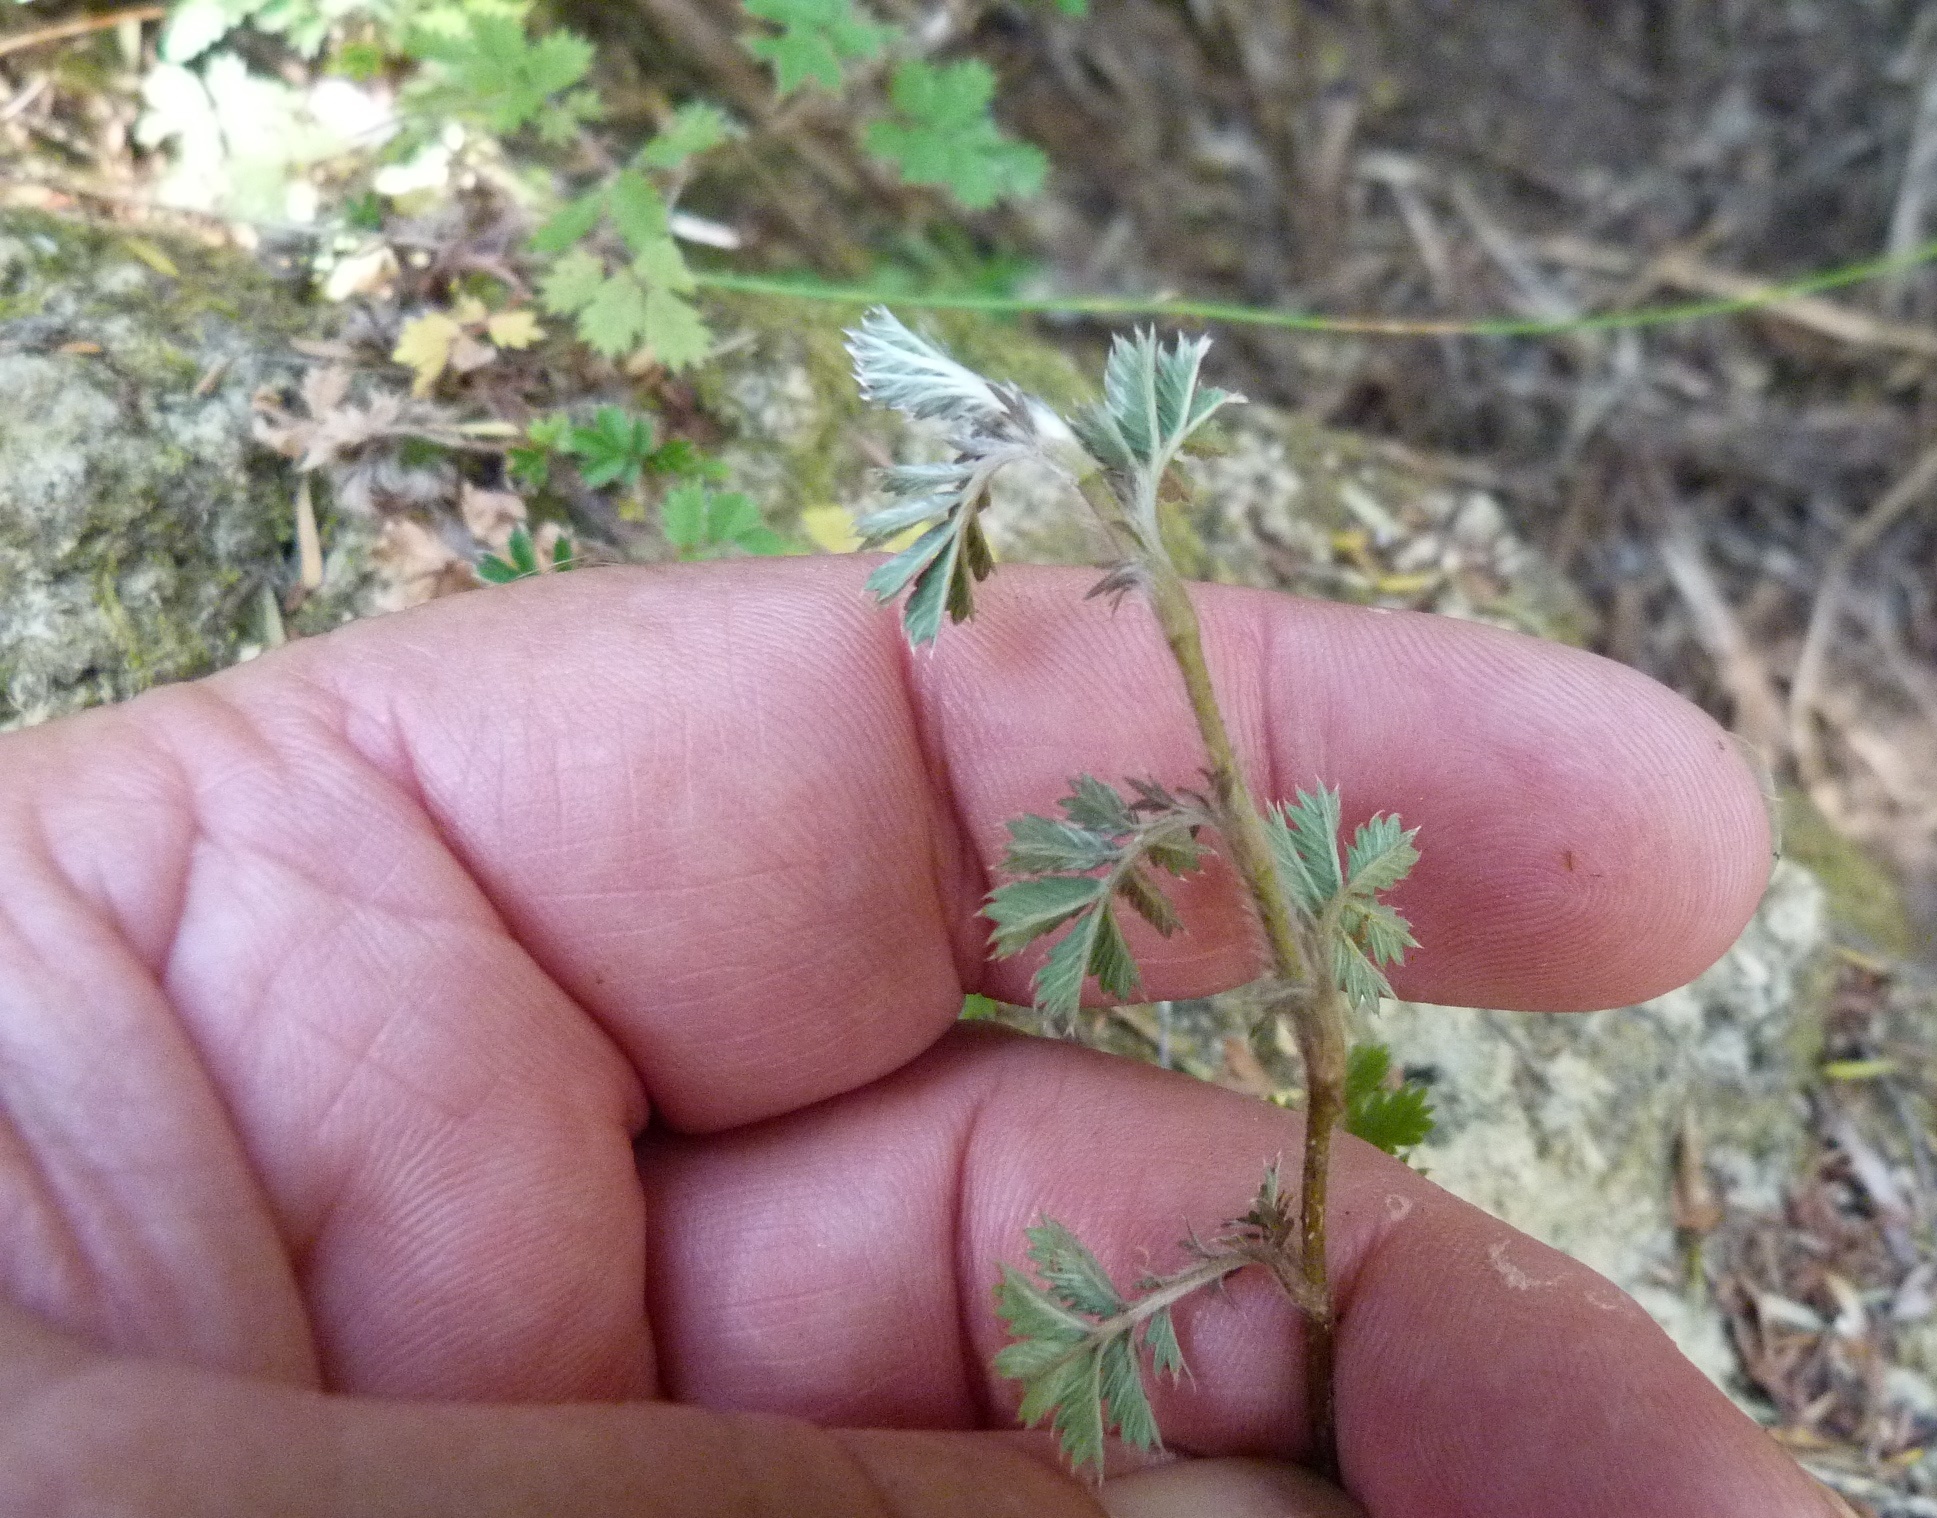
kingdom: Plantae
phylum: Tracheophyta
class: Magnoliopsida
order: Rosales
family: Rosaceae
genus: Acaena
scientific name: Acaena anserinifolia
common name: Bronze pirri-pirri-bur
